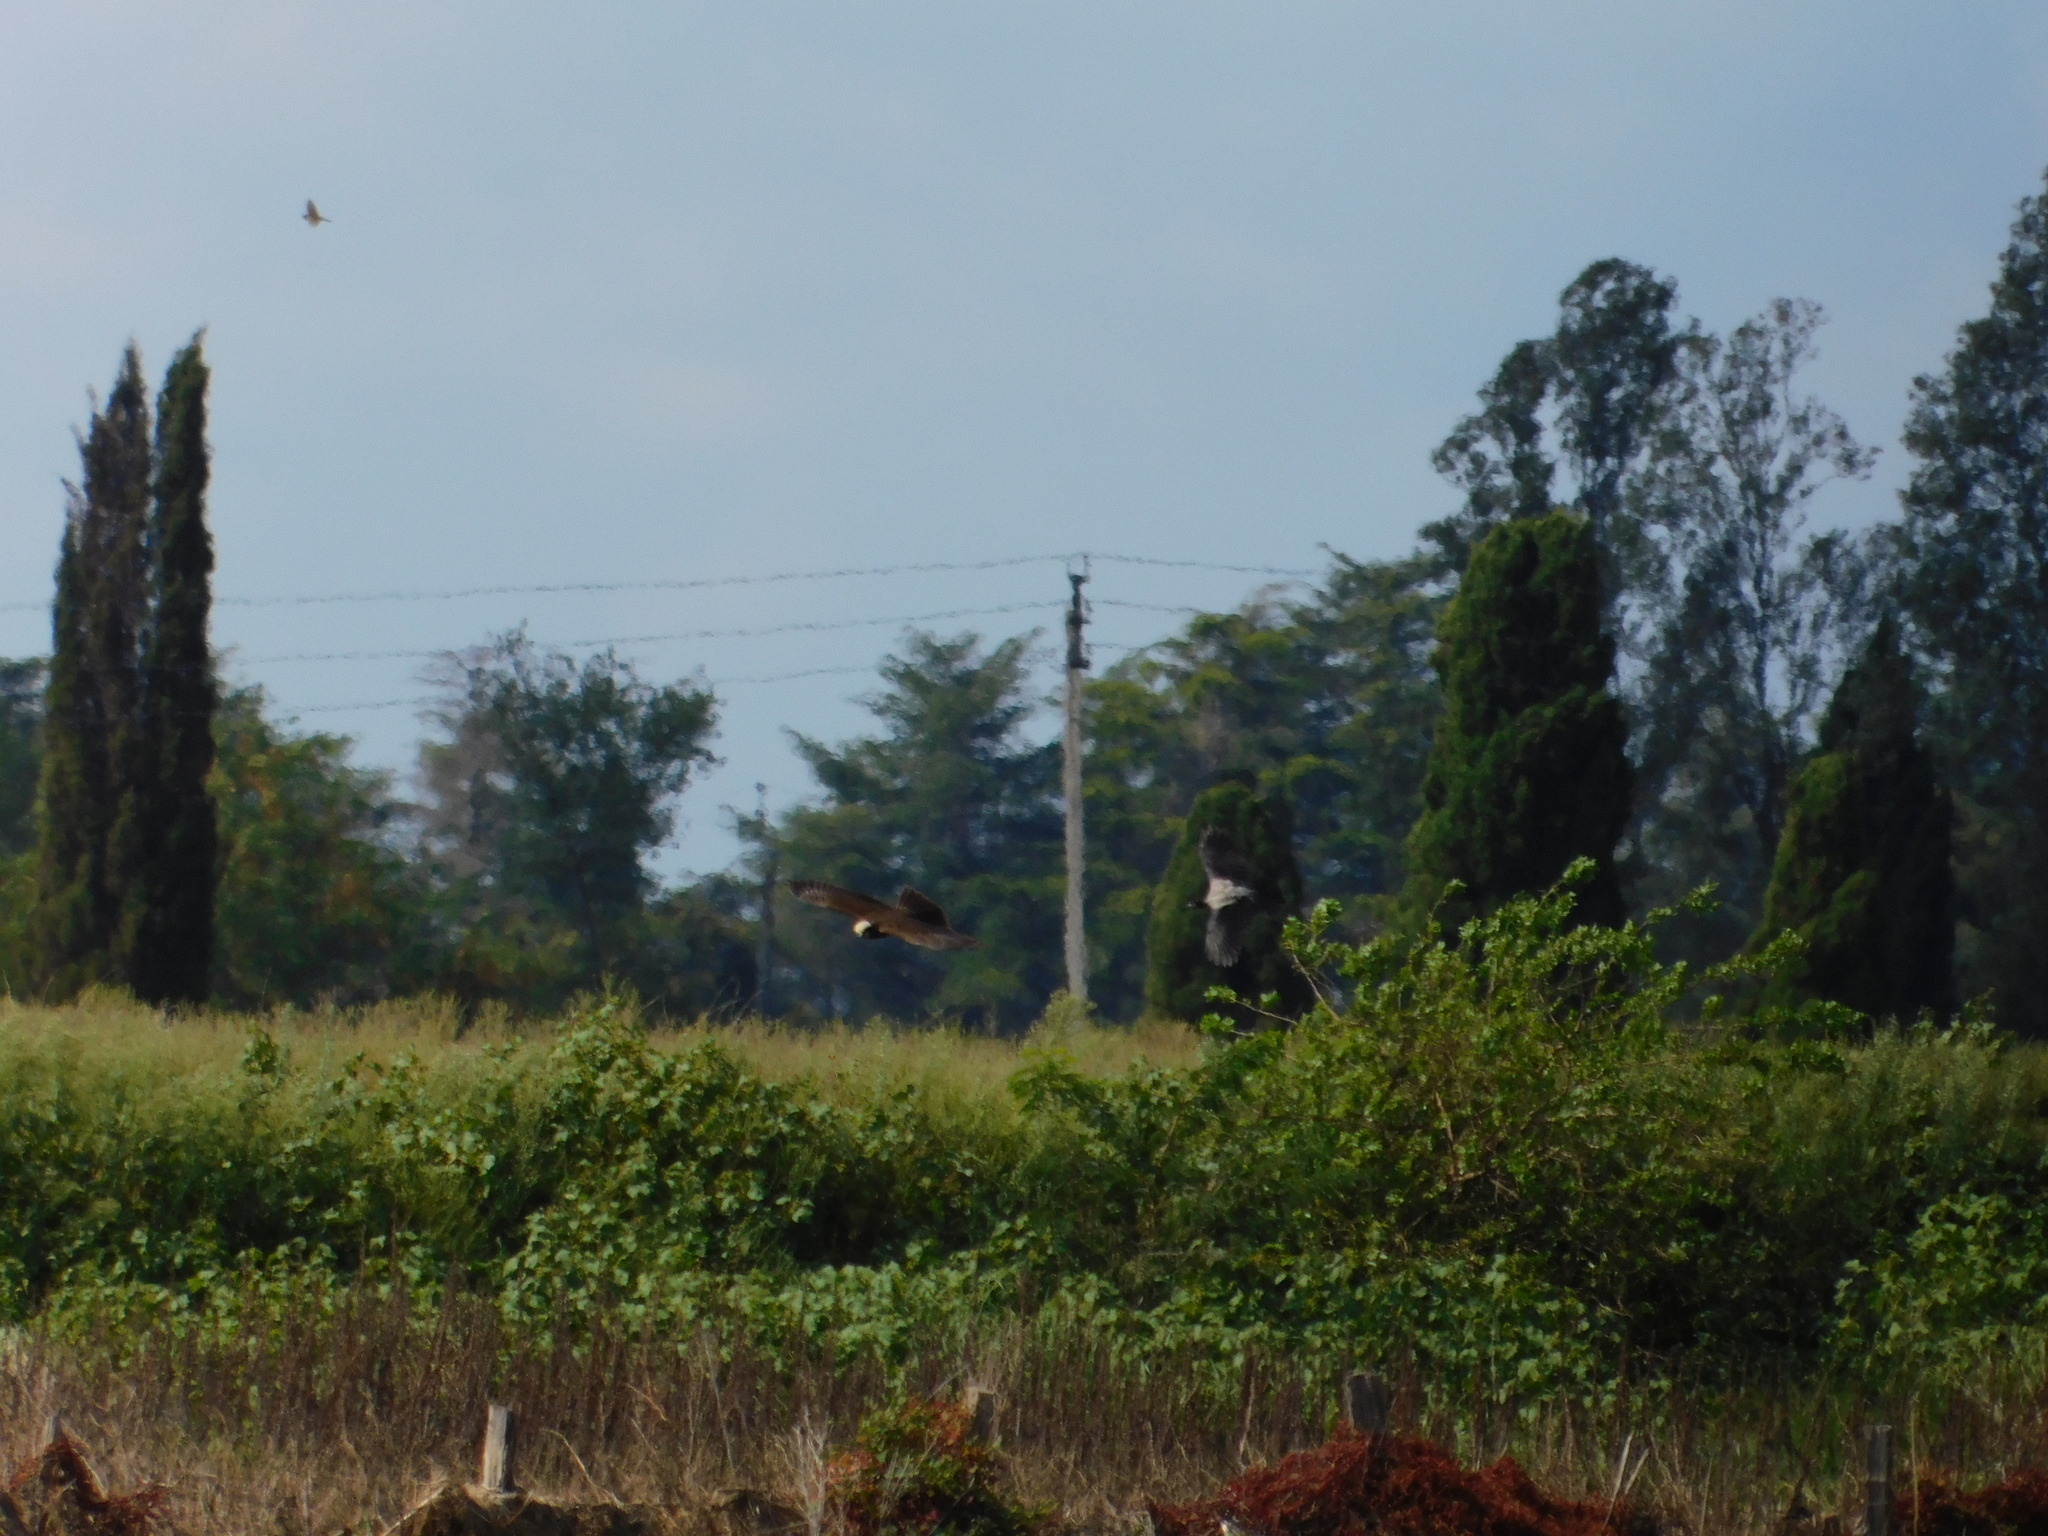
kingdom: Animalia
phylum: Chordata
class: Aves
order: Accipitriformes
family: Accipitridae
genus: Circus
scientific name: Circus aeruginosus
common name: Western marsh harrier
